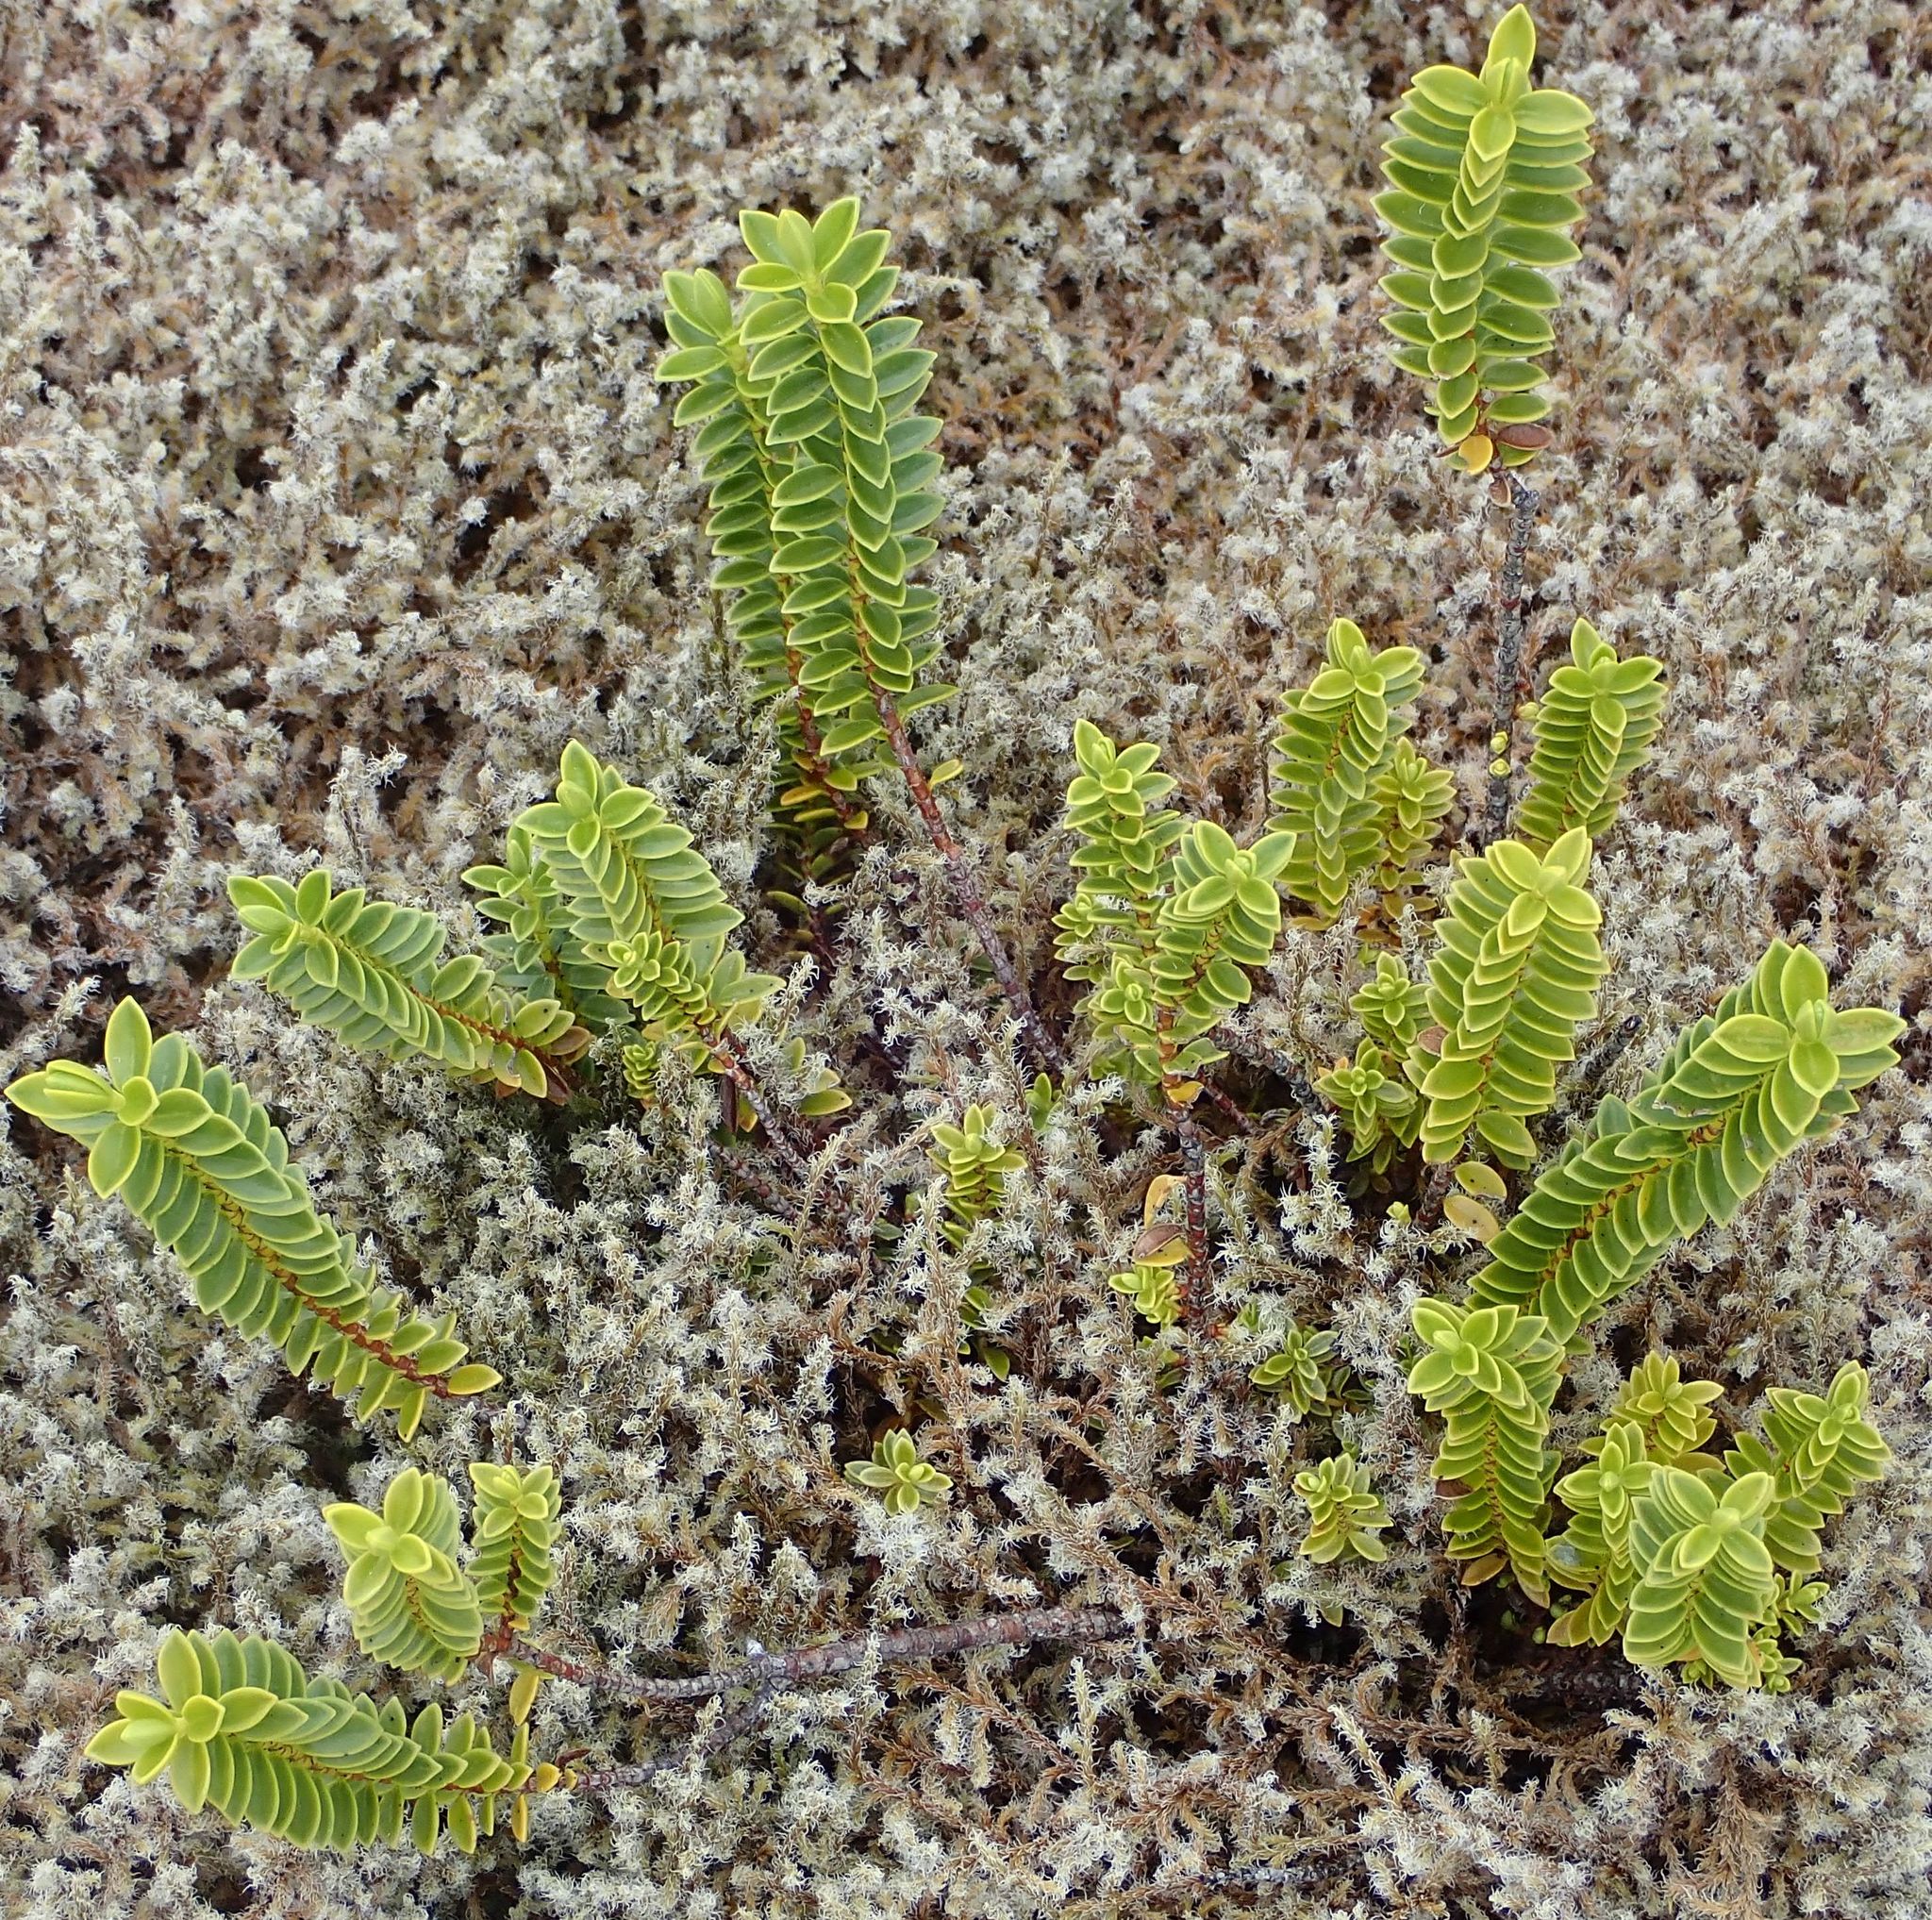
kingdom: Plantae
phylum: Tracheophyta
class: Magnoliopsida
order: Lamiales
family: Plantaginaceae
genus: Veronica
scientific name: Veronica odora
